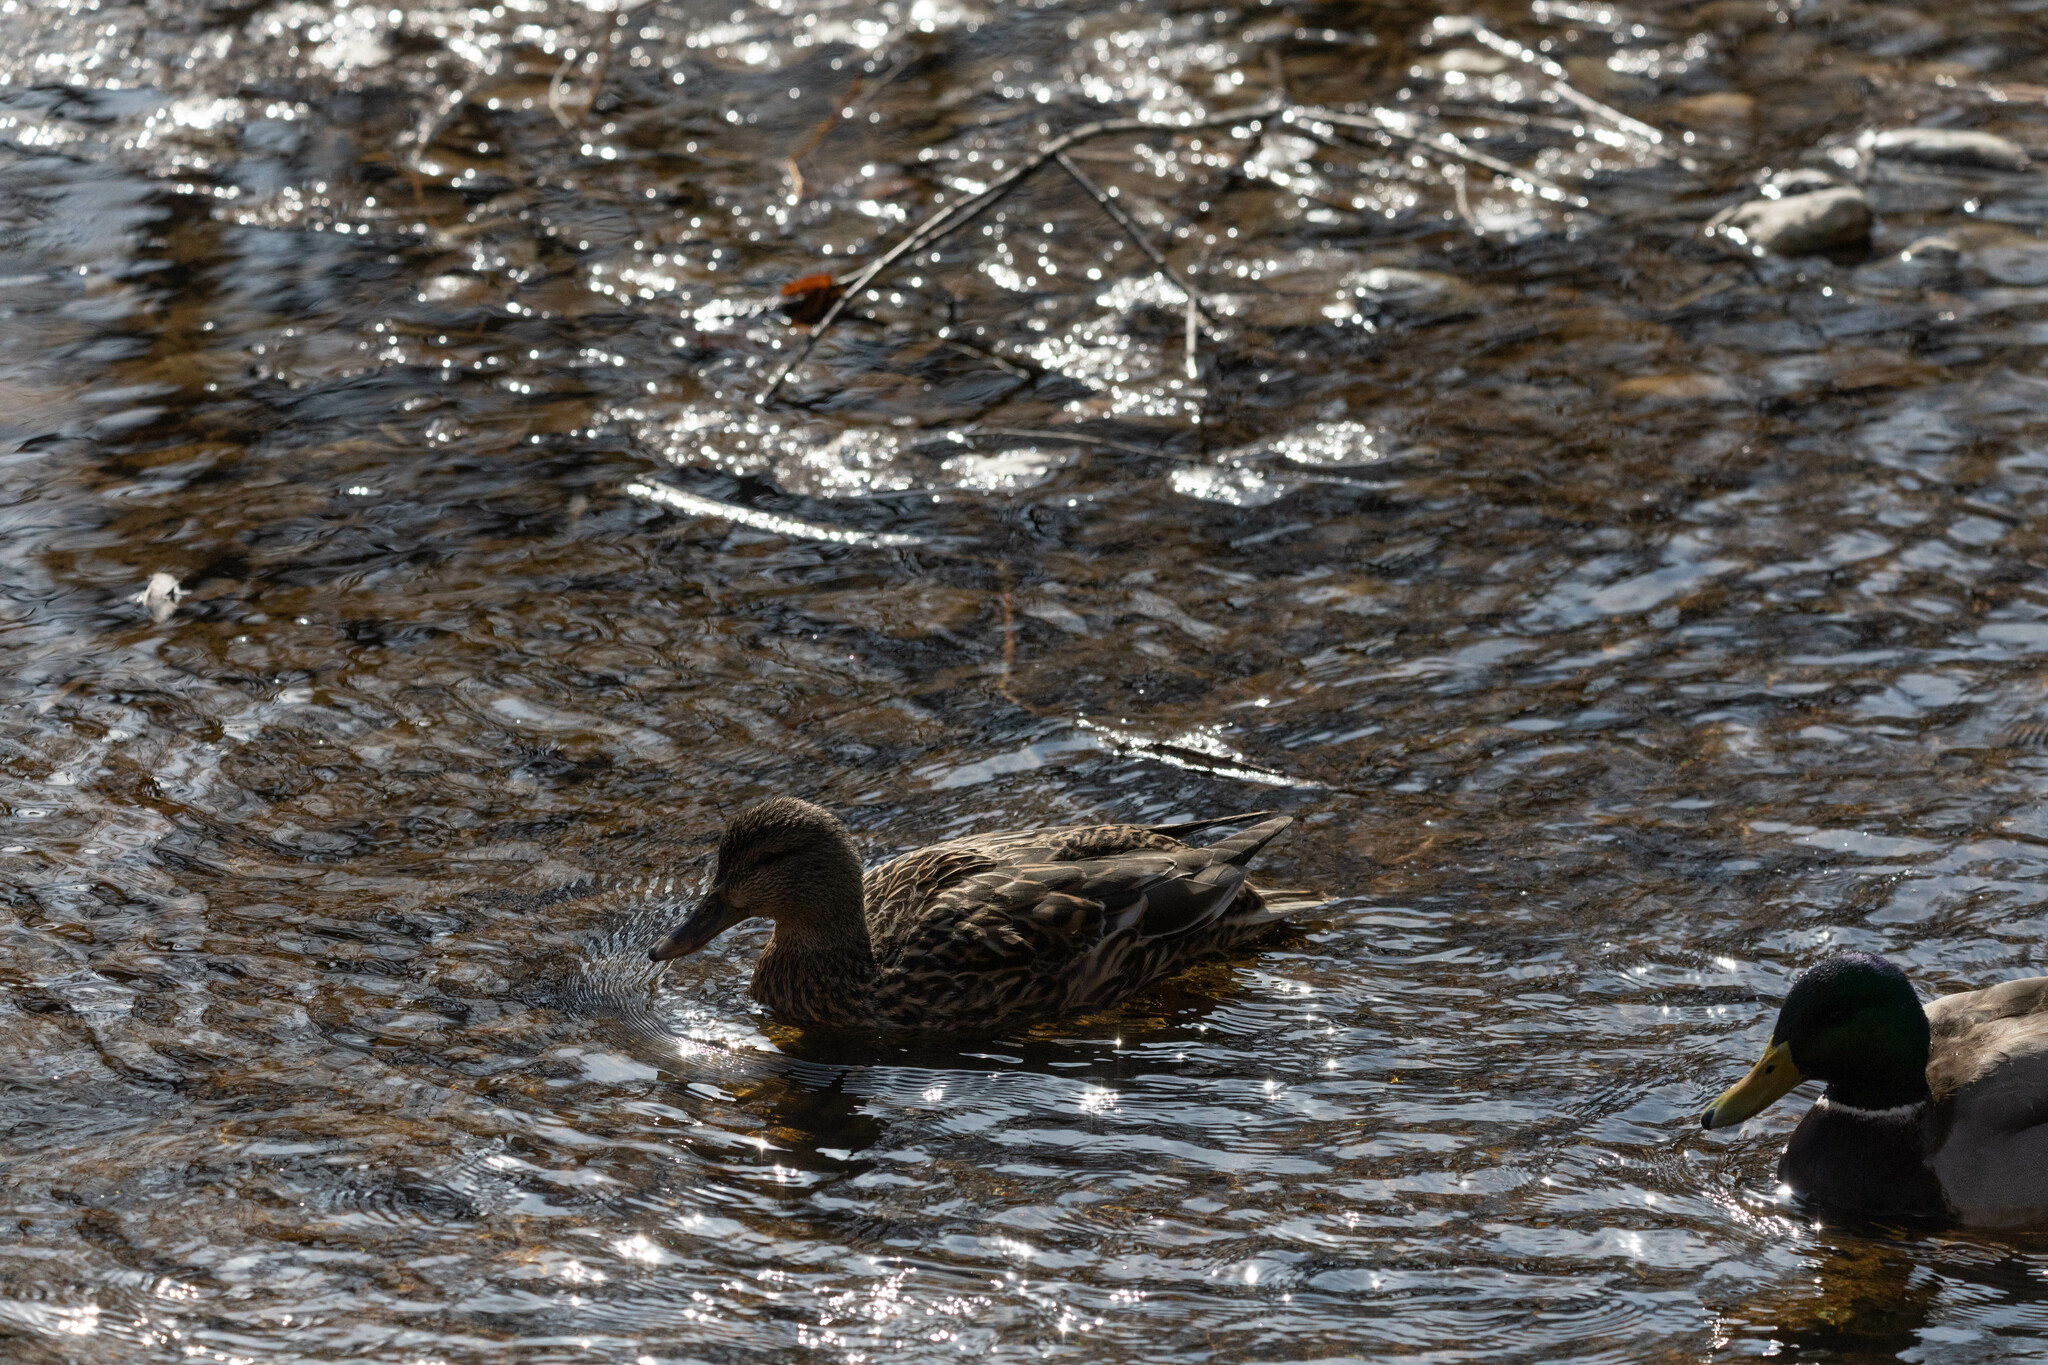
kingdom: Animalia
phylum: Chordata
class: Aves
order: Anseriformes
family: Anatidae
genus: Anas
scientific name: Anas platyrhynchos
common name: Mallard
